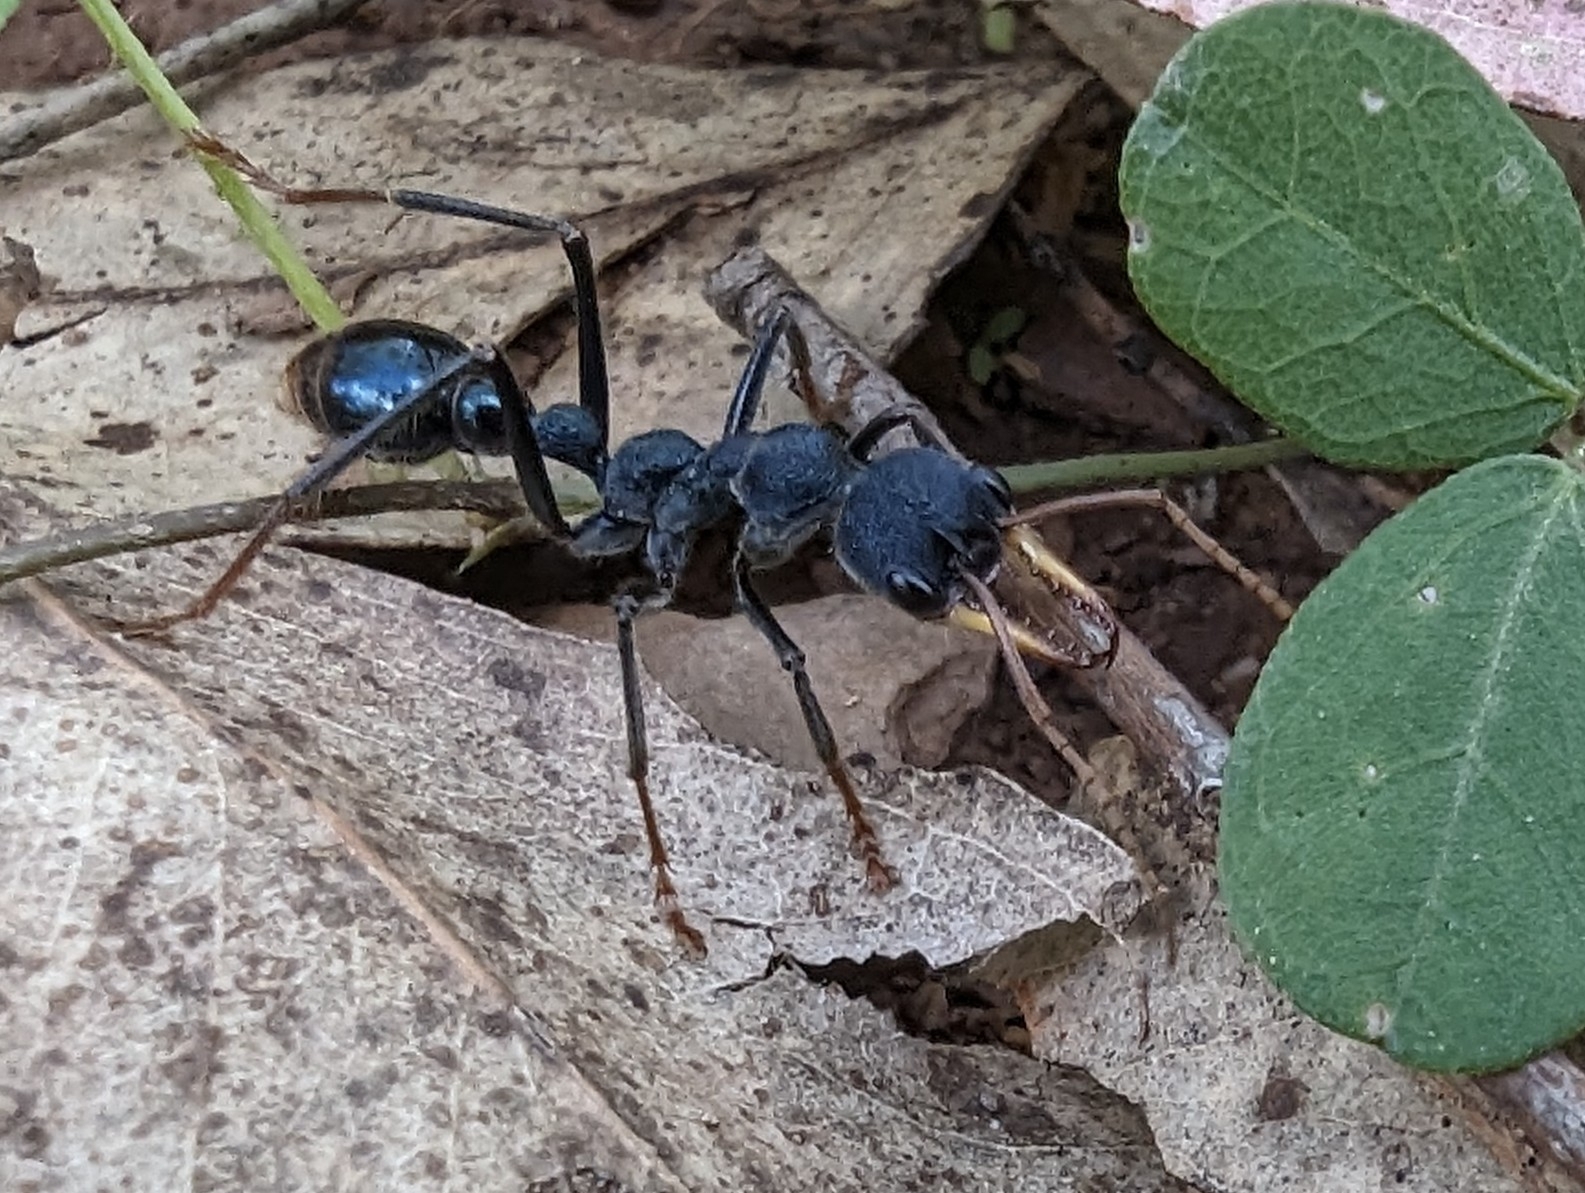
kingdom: Animalia
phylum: Arthropoda
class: Insecta
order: Hymenoptera
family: Formicidae
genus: Myrmecia
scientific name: Myrmecia tarsata
